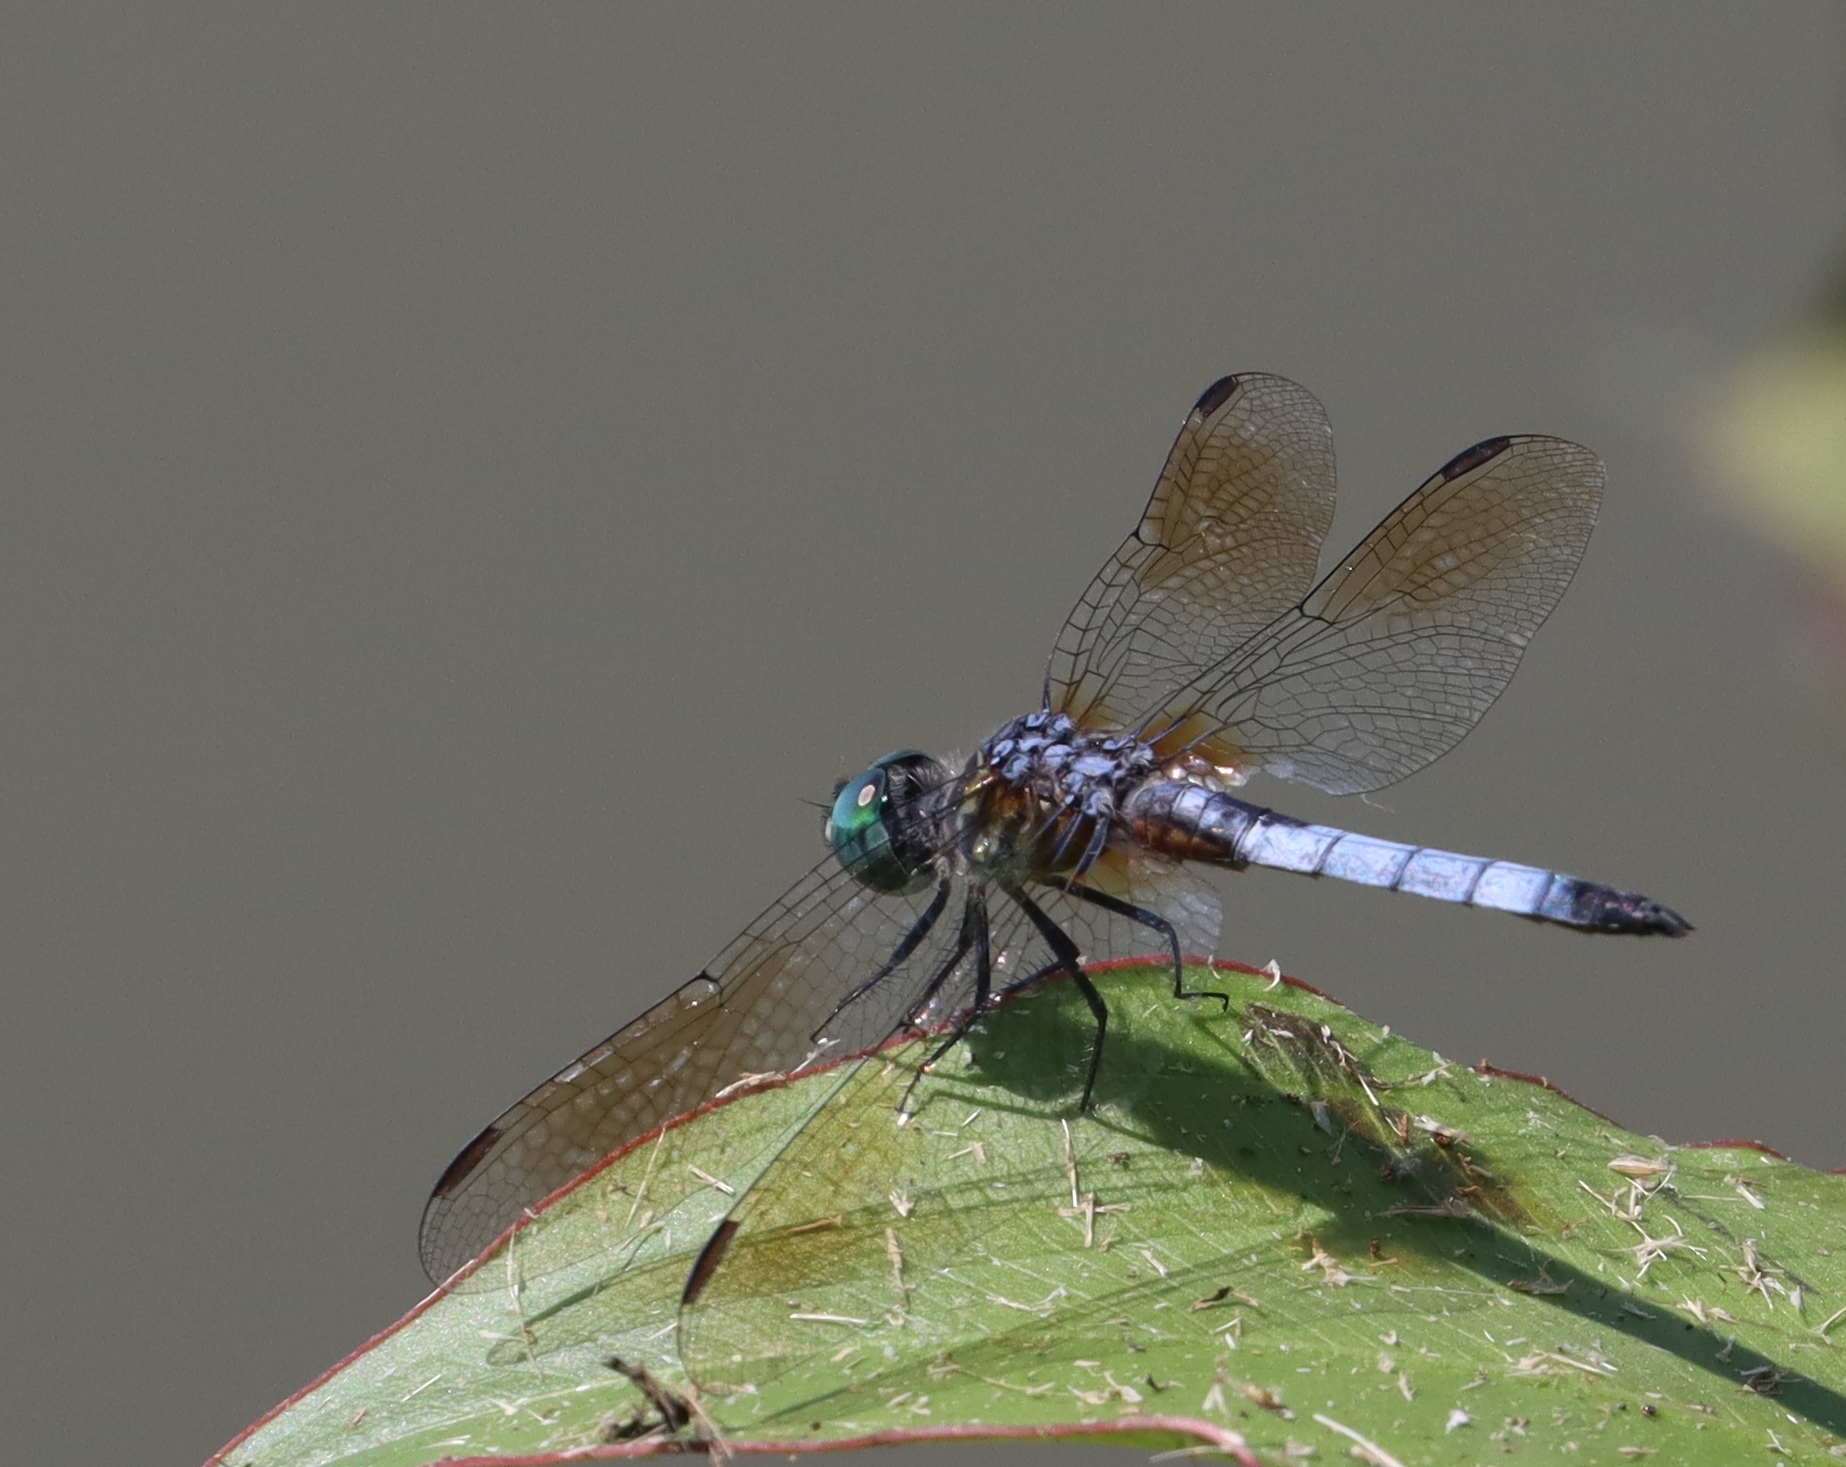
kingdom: Animalia
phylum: Arthropoda
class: Insecta
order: Odonata
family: Libellulidae
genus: Pachydiplax
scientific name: Pachydiplax longipennis
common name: Blue dasher
